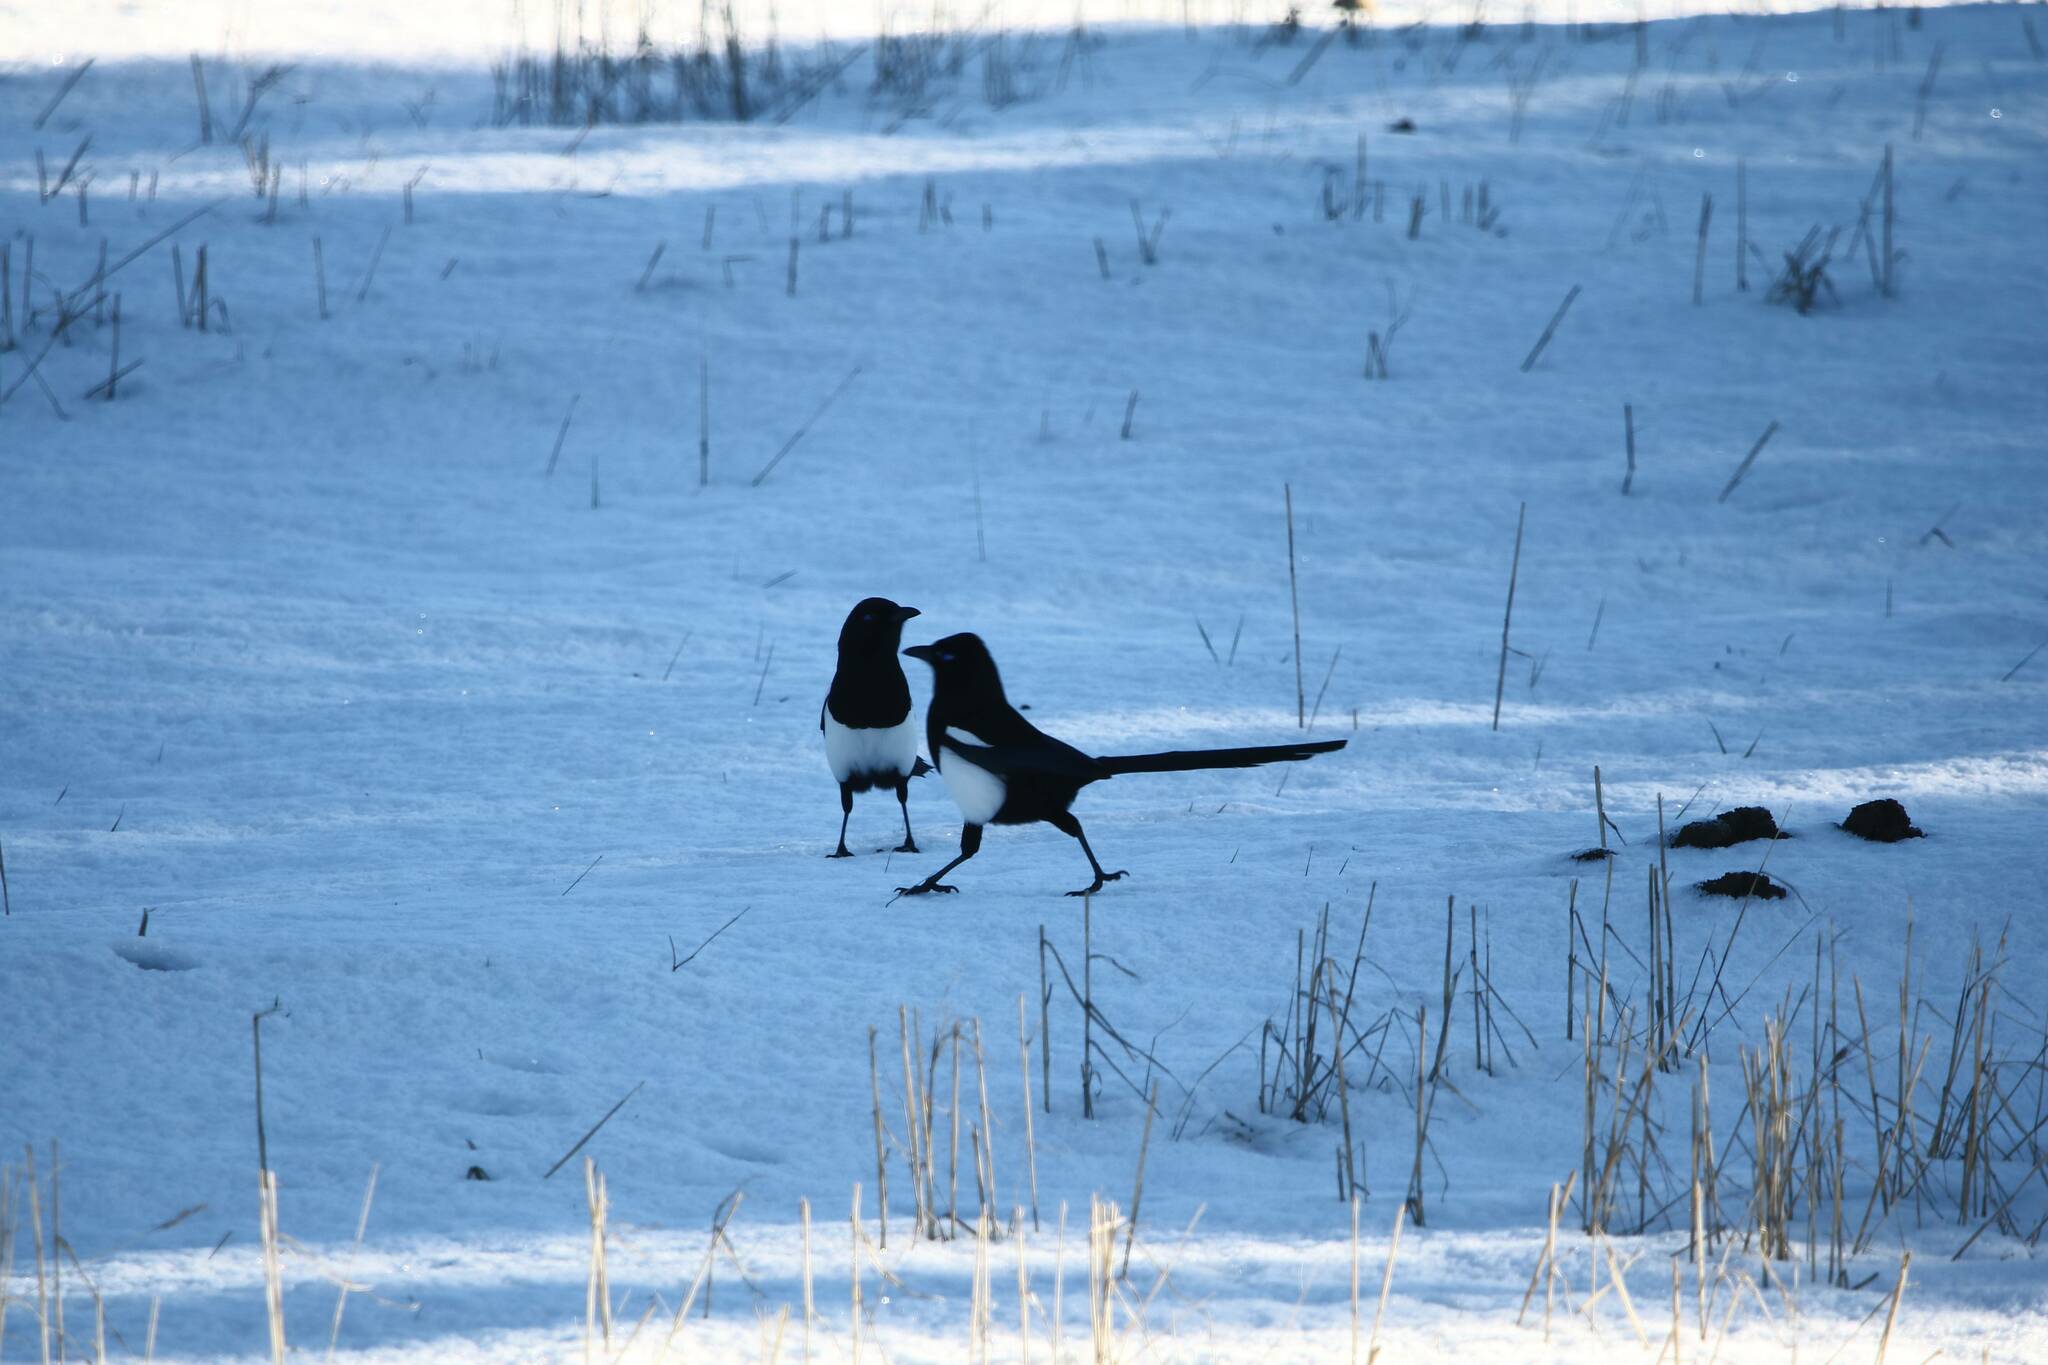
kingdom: Animalia
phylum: Chordata
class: Aves
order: Passeriformes
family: Corvidae
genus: Pica
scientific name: Pica mauritanica
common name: Maghreb magpie
